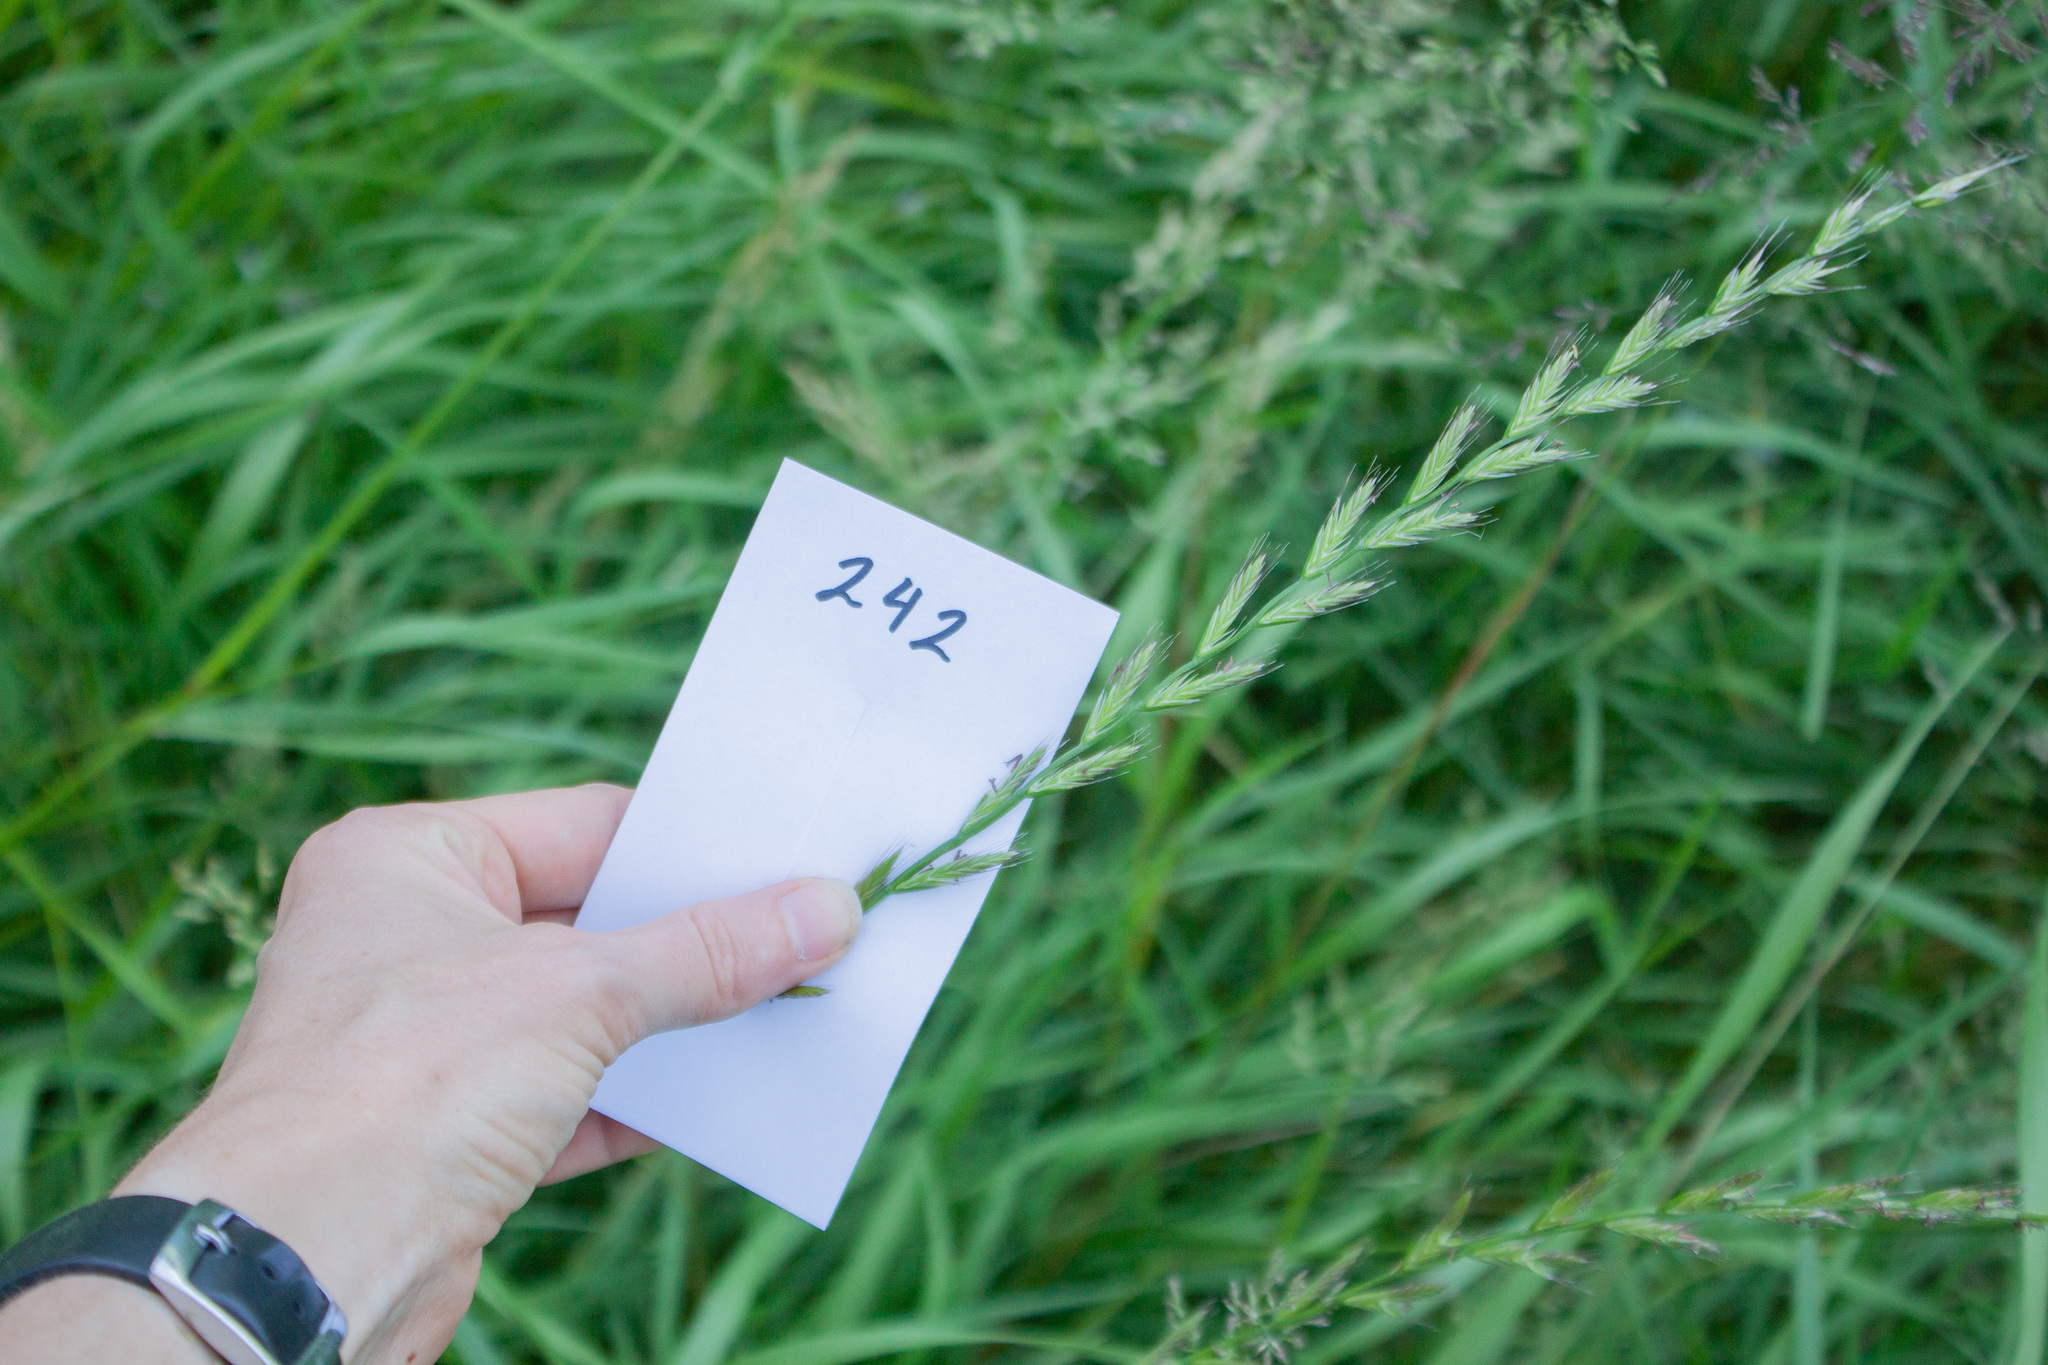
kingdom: Plantae
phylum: Tracheophyta
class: Liliopsida
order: Poales
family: Poaceae
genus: Lolium
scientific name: Lolium multiflorum
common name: Annual ryegrass
